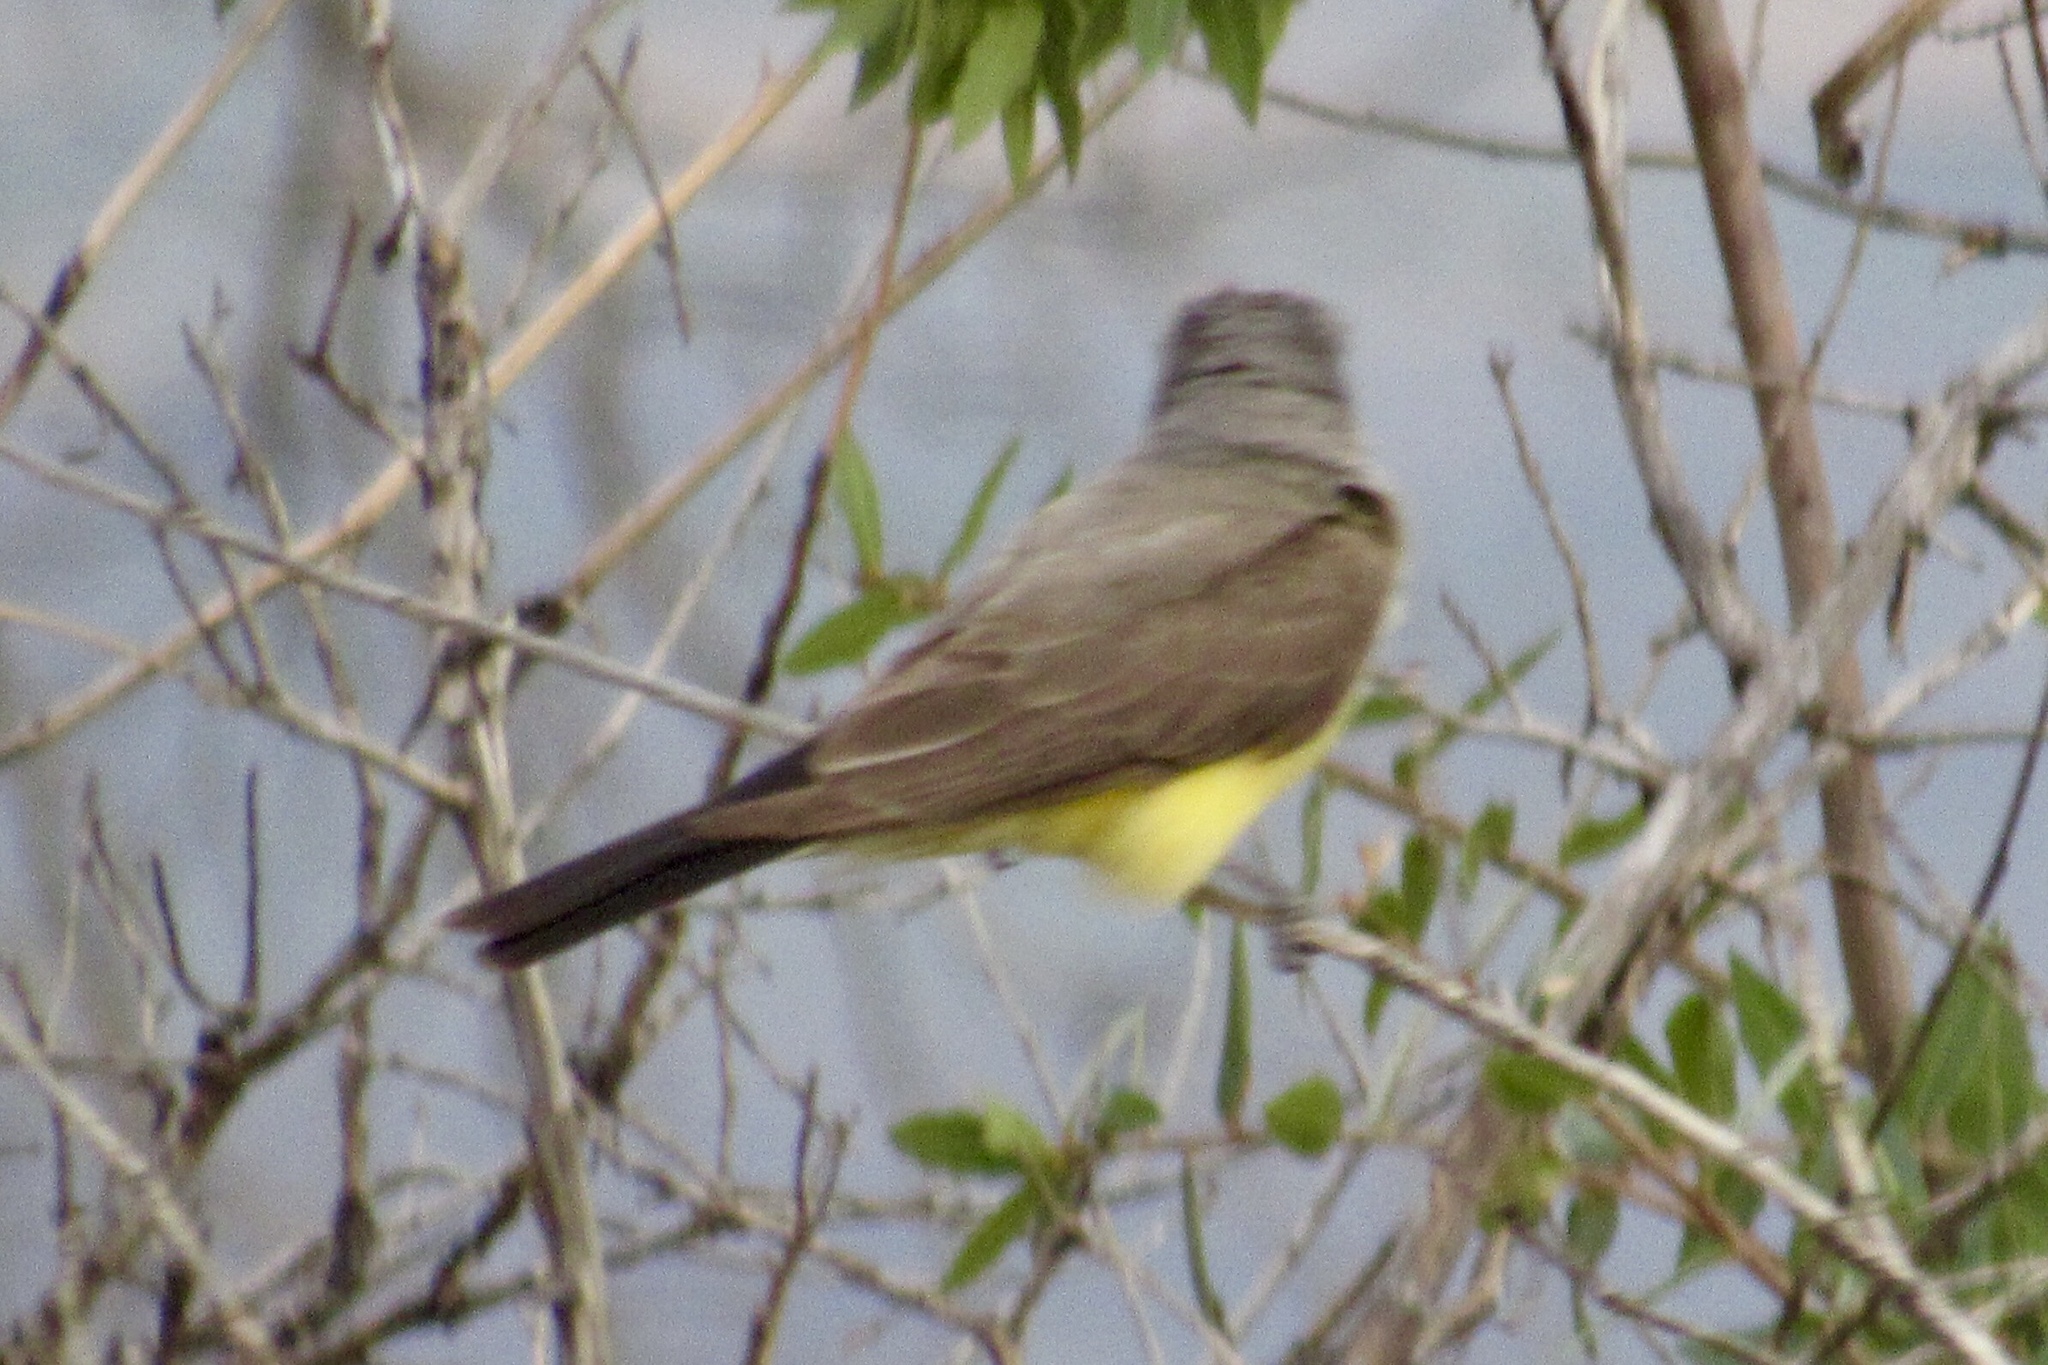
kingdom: Animalia
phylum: Chordata
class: Aves
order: Passeriformes
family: Tyrannidae
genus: Tyrannus
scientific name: Tyrannus verticalis
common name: Western kingbird
